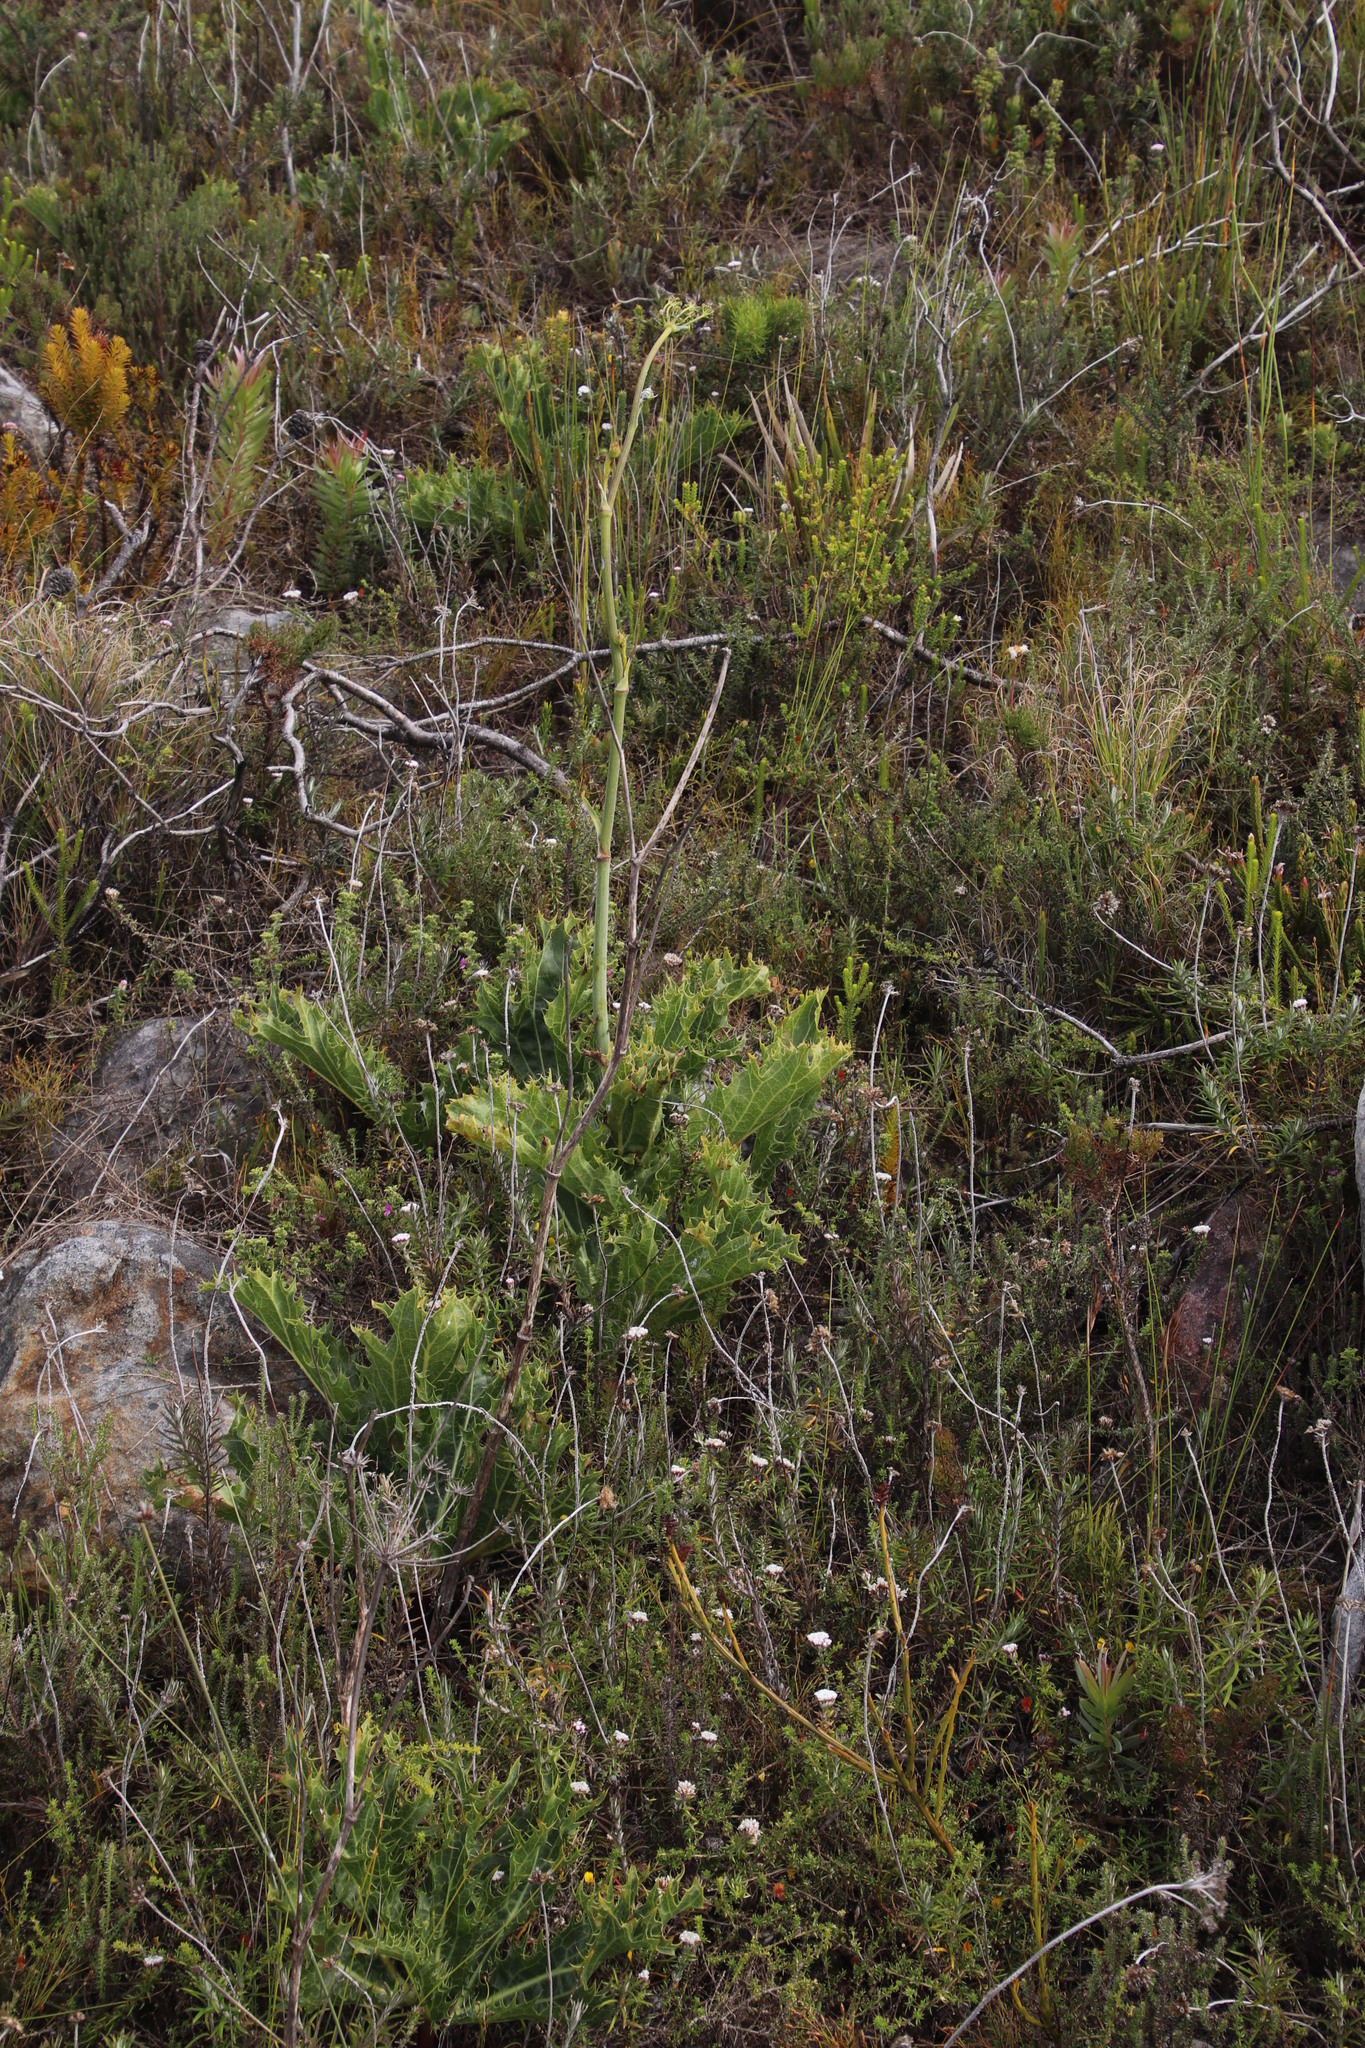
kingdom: Plantae
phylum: Tracheophyta
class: Magnoliopsida
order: Apiales
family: Apiaceae
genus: Lichtensteinia
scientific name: Lichtensteinia lacera
